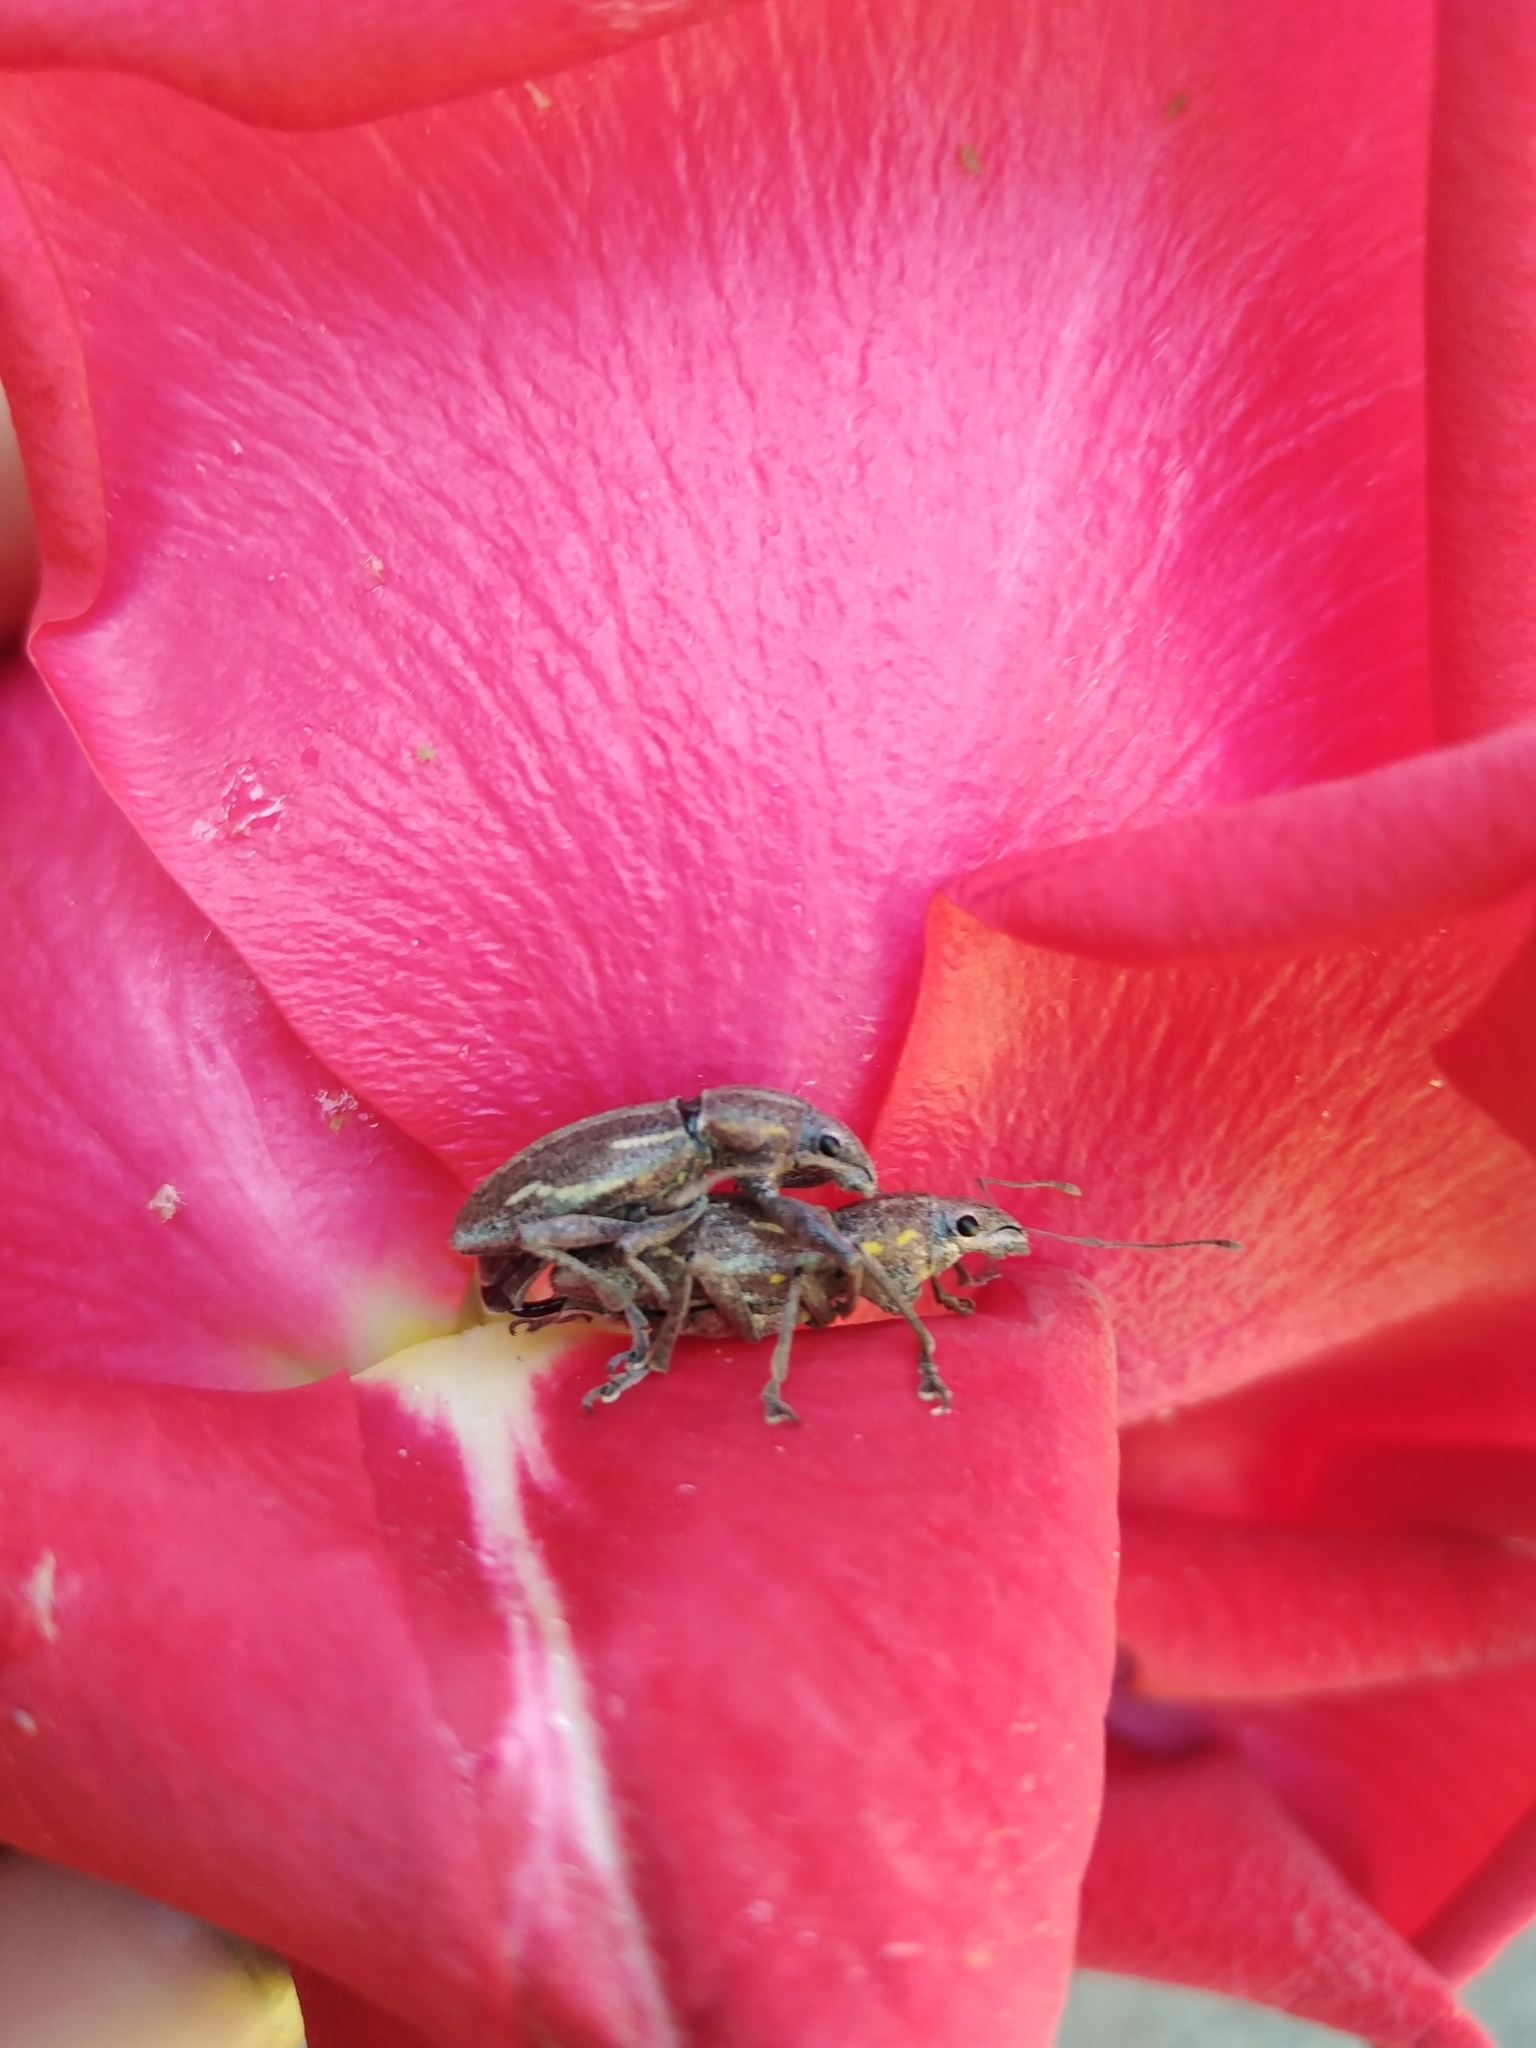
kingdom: Animalia
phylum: Arthropoda
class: Insecta
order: Coleoptera
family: Curculionidae
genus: Naupactus
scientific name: Naupactus xanthographus
